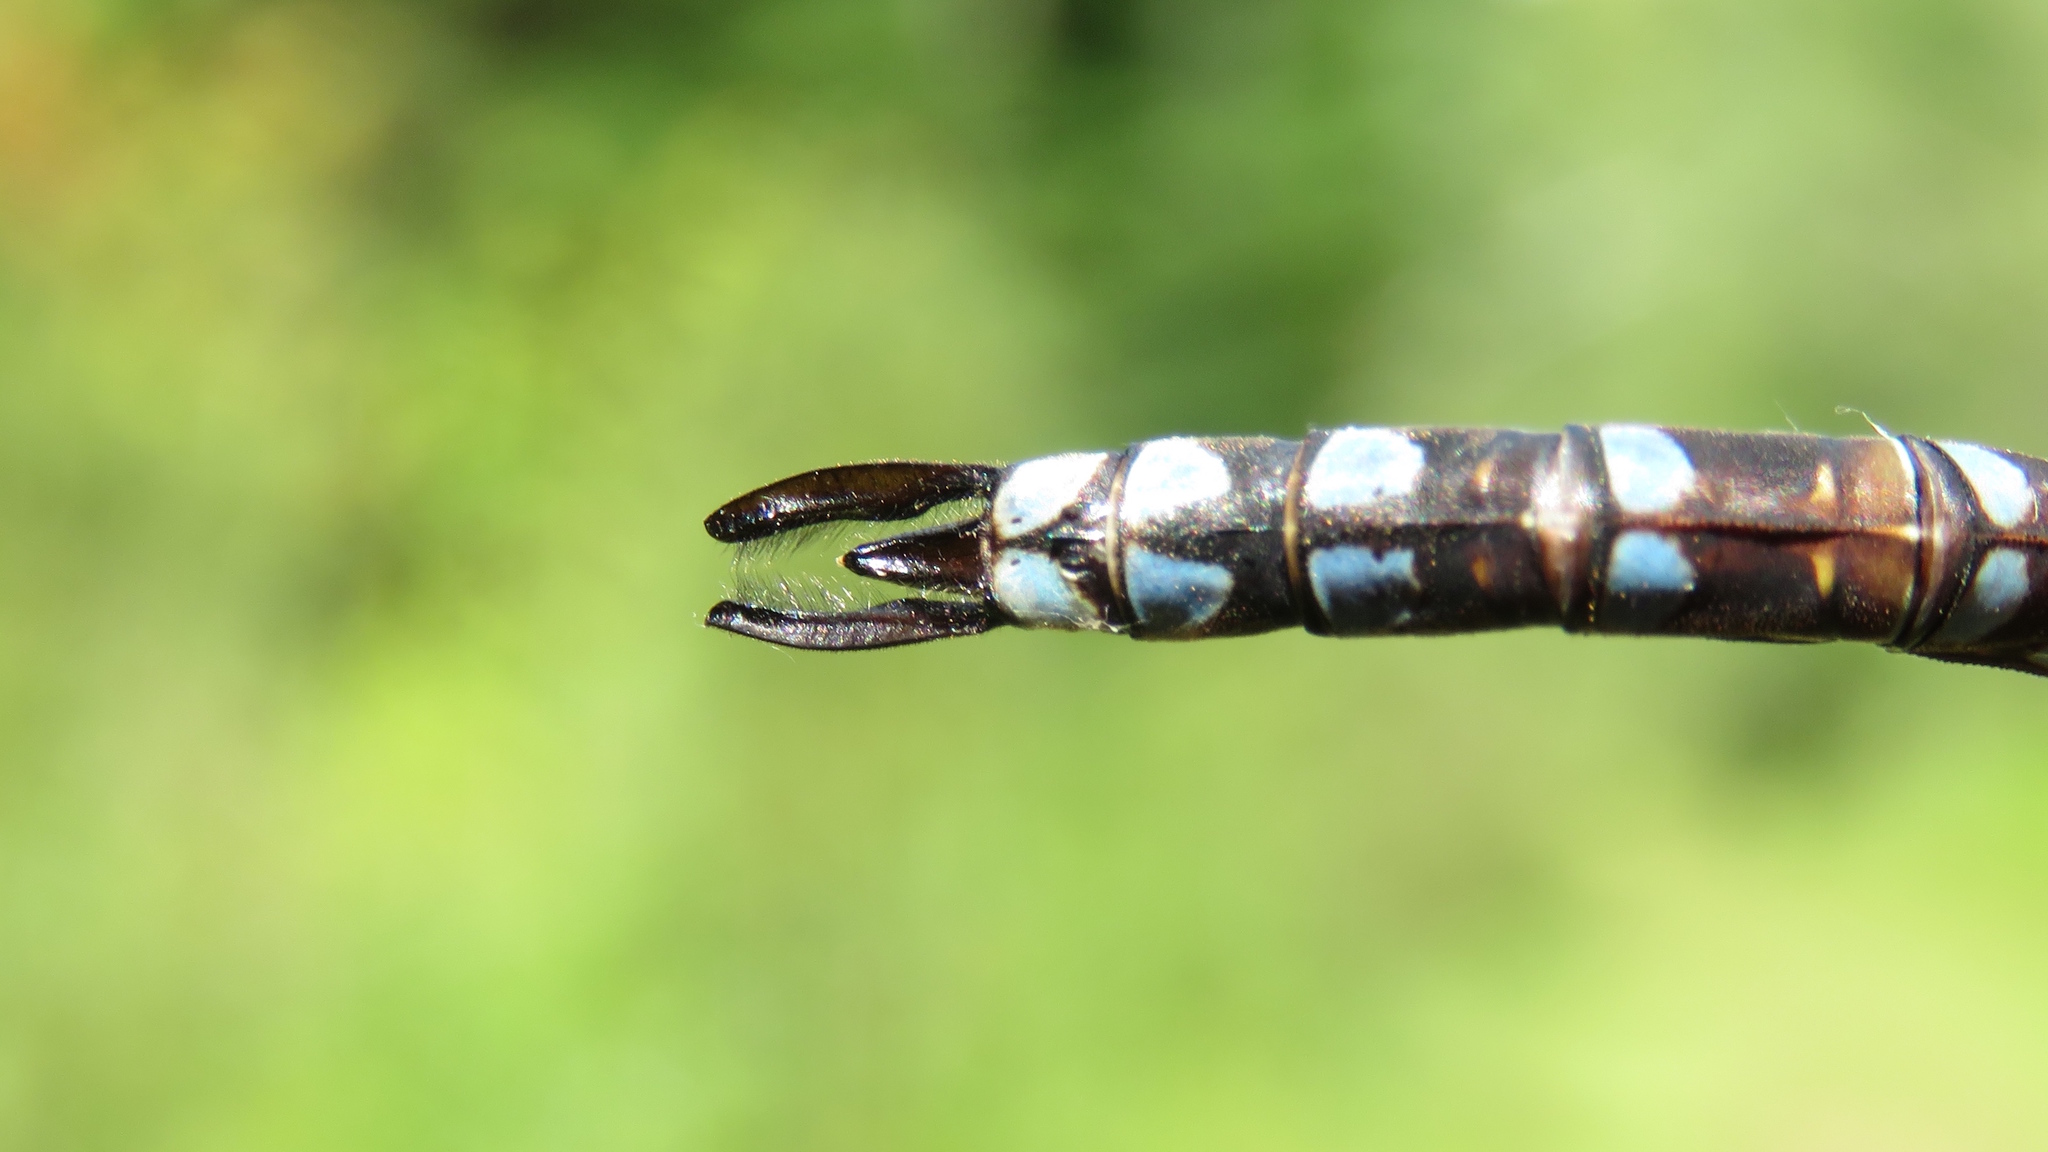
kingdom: Animalia
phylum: Arthropoda
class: Insecta
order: Odonata
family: Aeshnidae
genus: Aeshna
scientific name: Aeshna canadensis
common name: Canada darner
